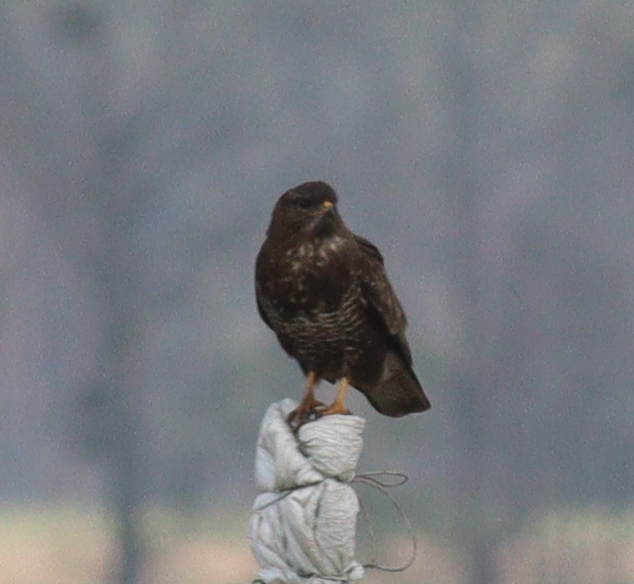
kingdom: Animalia
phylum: Chordata
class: Aves
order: Accipitriformes
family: Accipitridae
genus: Buteo
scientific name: Buteo buteo
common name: Common buzzard
